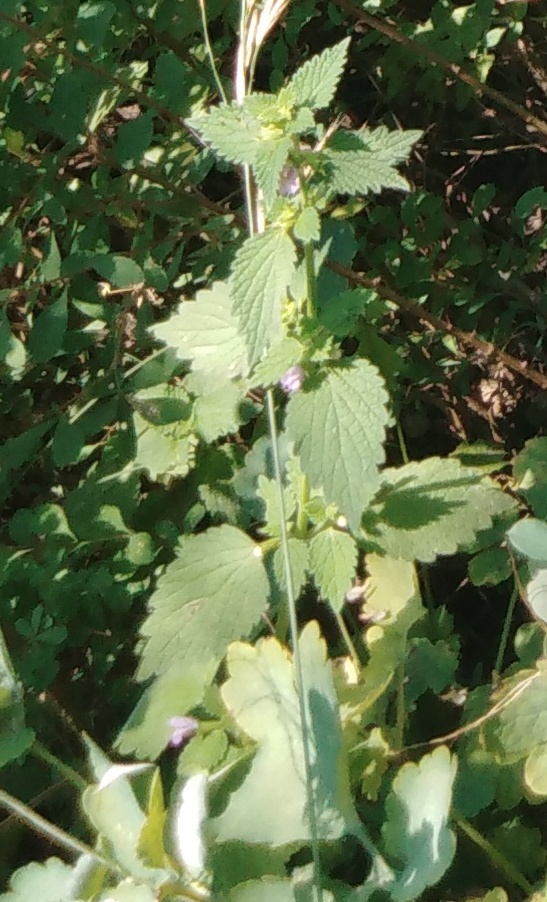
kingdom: Plantae
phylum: Tracheophyta
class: Magnoliopsida
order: Lamiales
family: Lamiaceae
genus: Ballota
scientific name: Ballota nigra
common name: Black horehound
